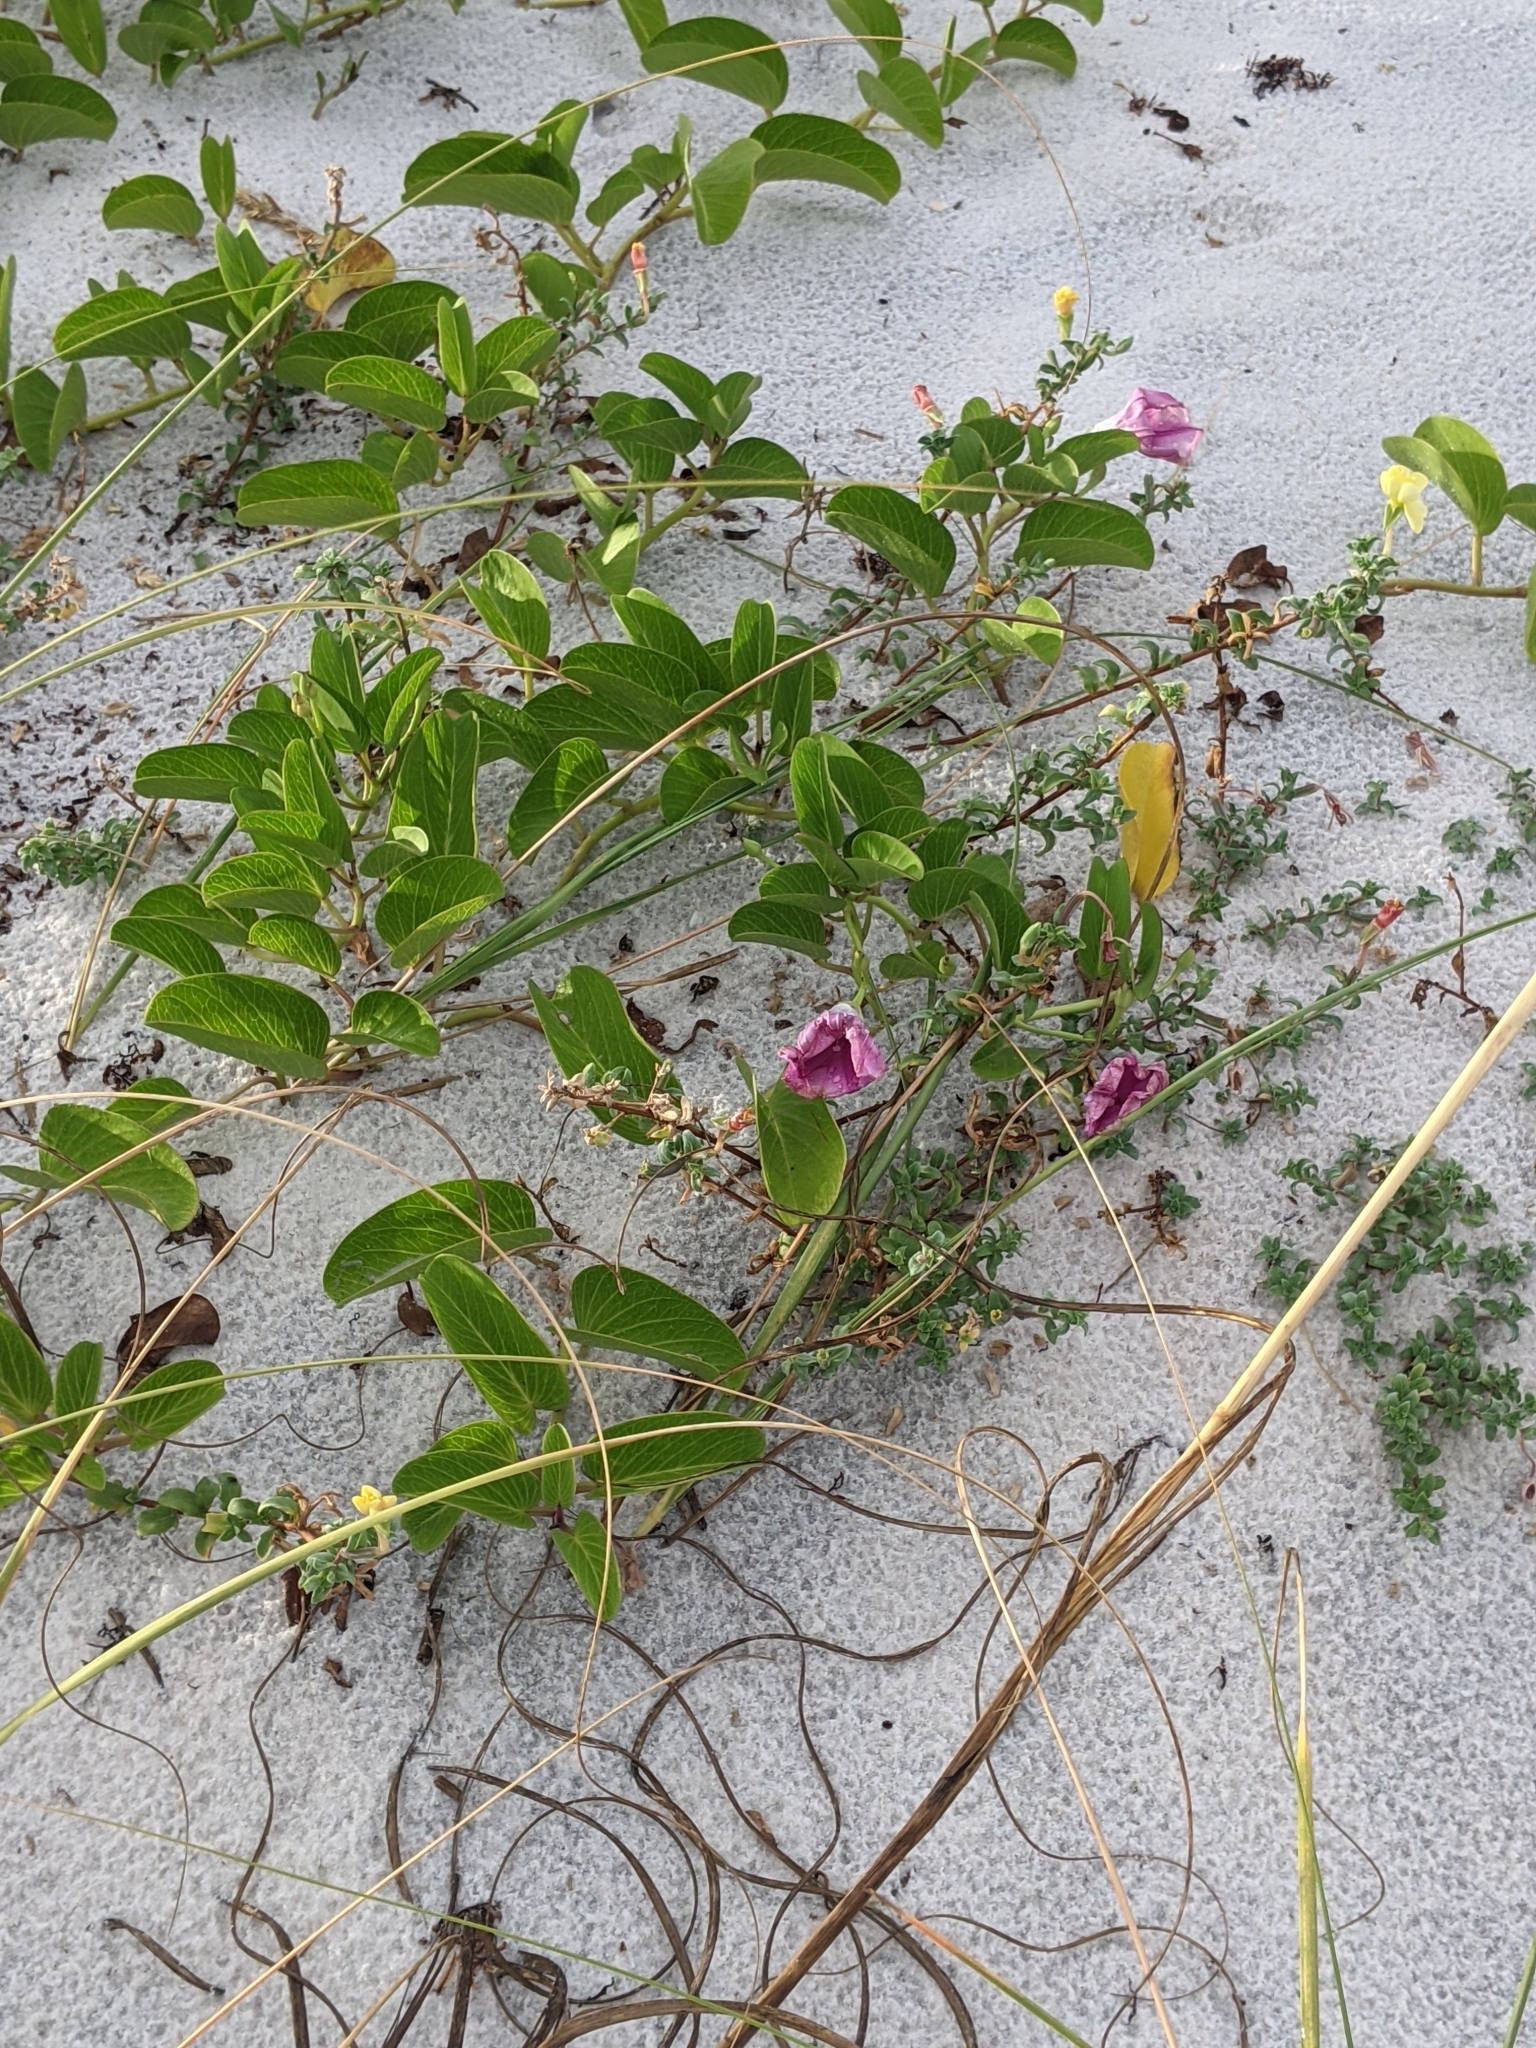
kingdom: Plantae
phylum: Tracheophyta
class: Magnoliopsida
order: Solanales
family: Convolvulaceae
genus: Ipomoea
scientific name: Ipomoea pes-caprae
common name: Beach morning glory
